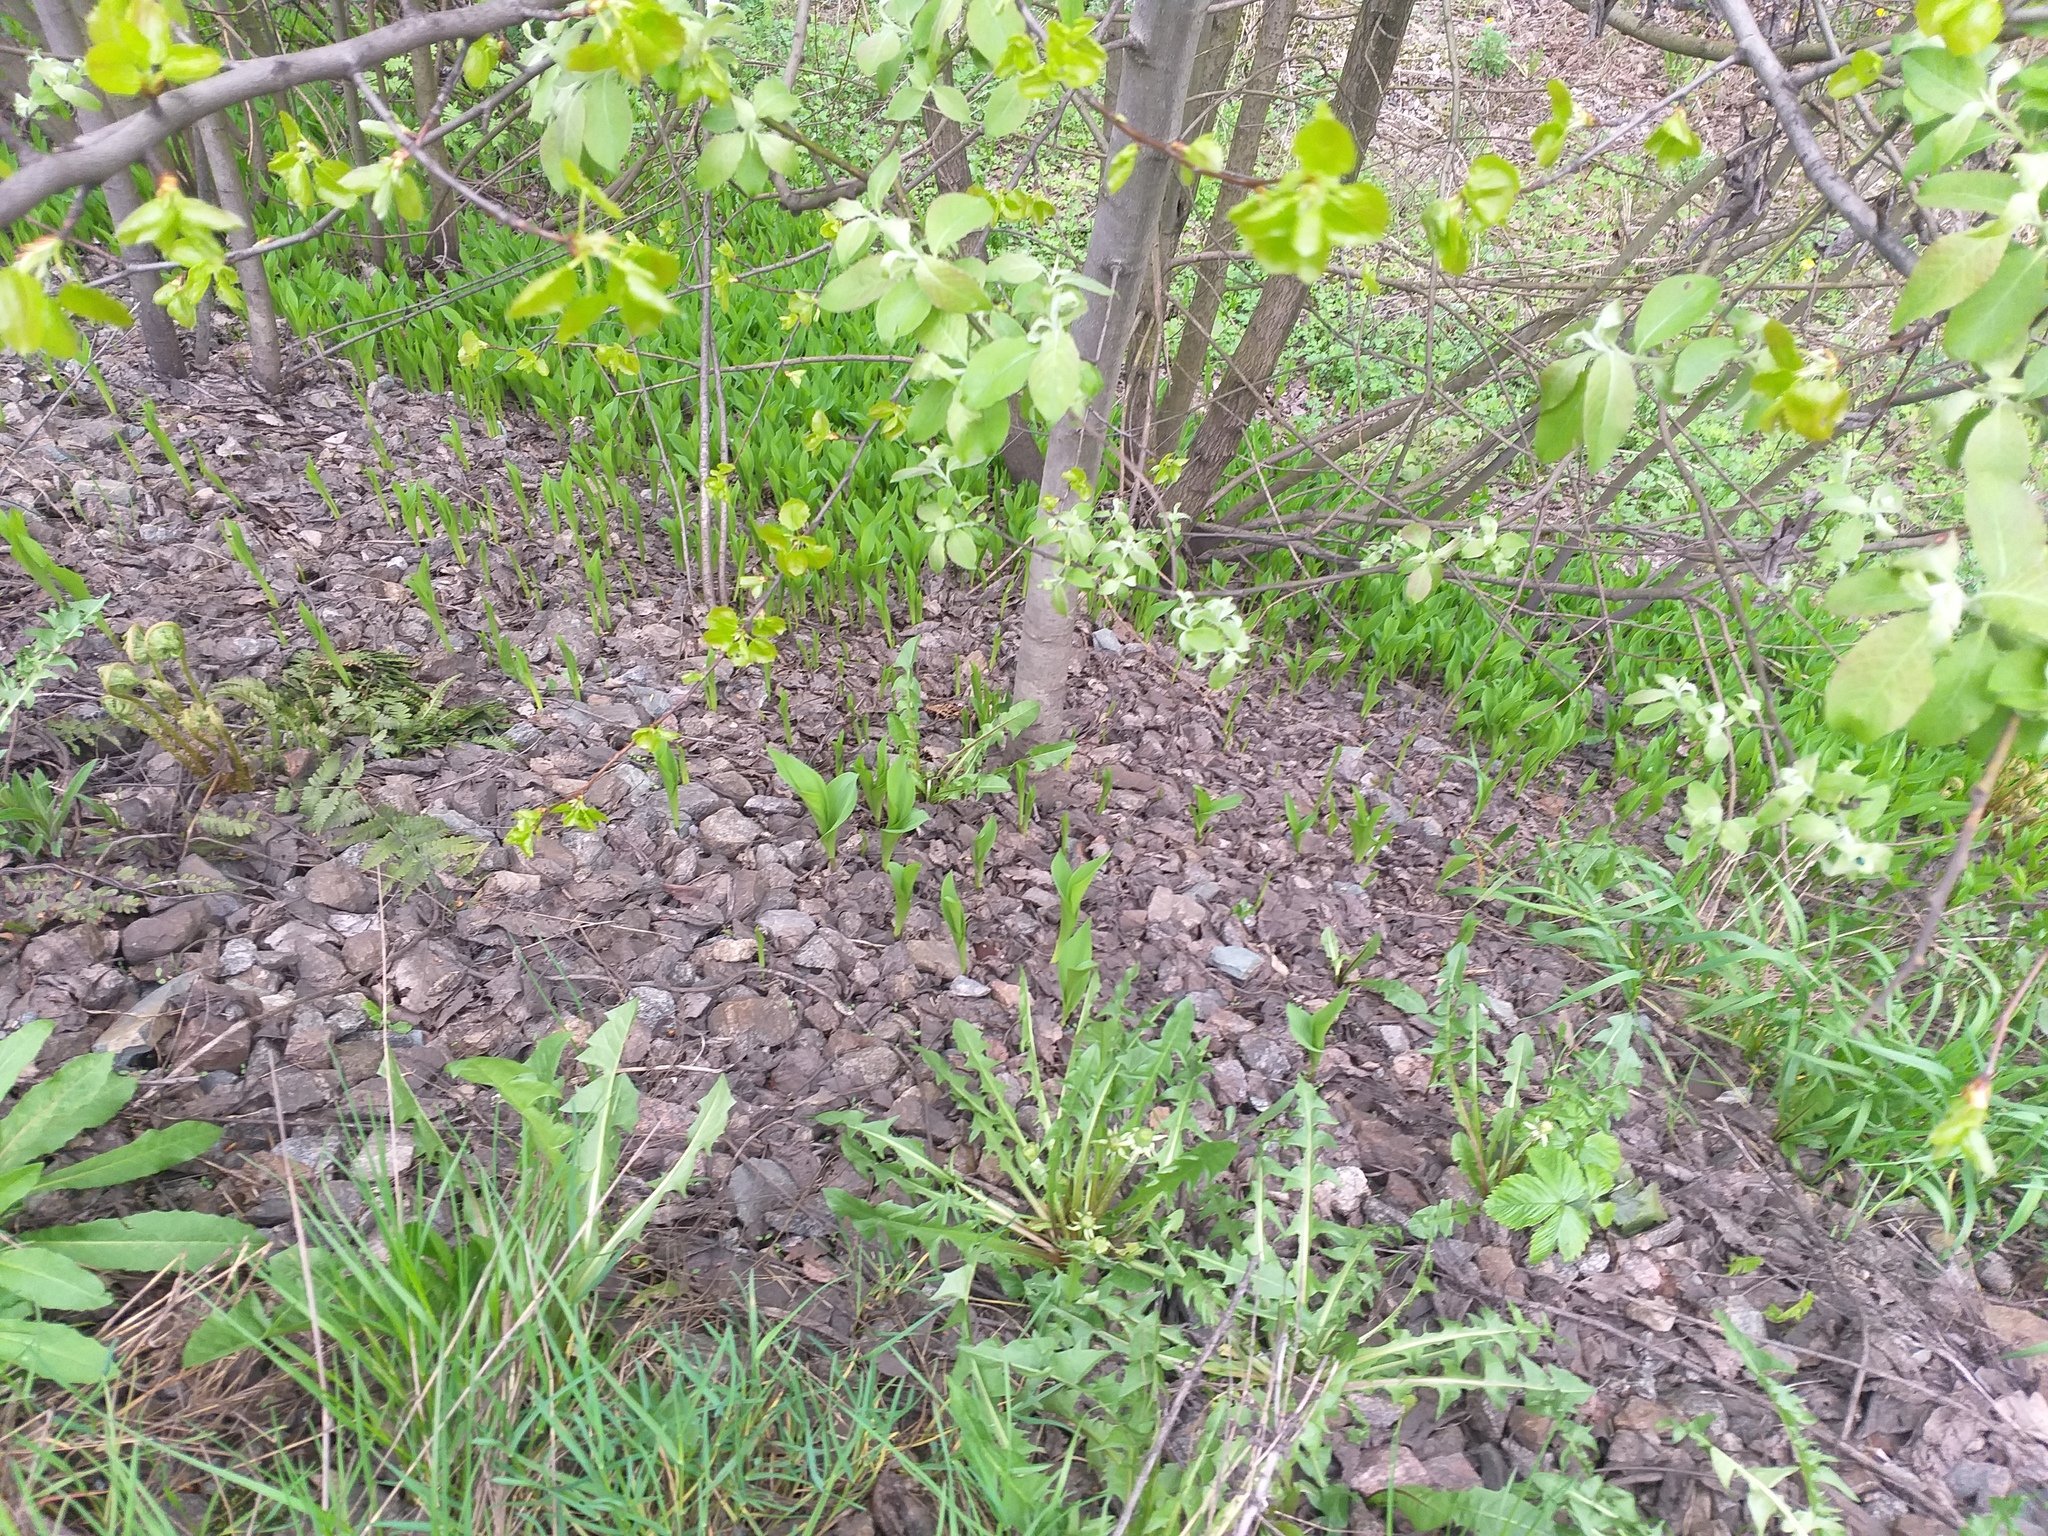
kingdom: Plantae
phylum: Tracheophyta
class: Liliopsida
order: Asparagales
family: Asparagaceae
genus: Convallaria
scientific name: Convallaria majalis
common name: Lily-of-the-valley
